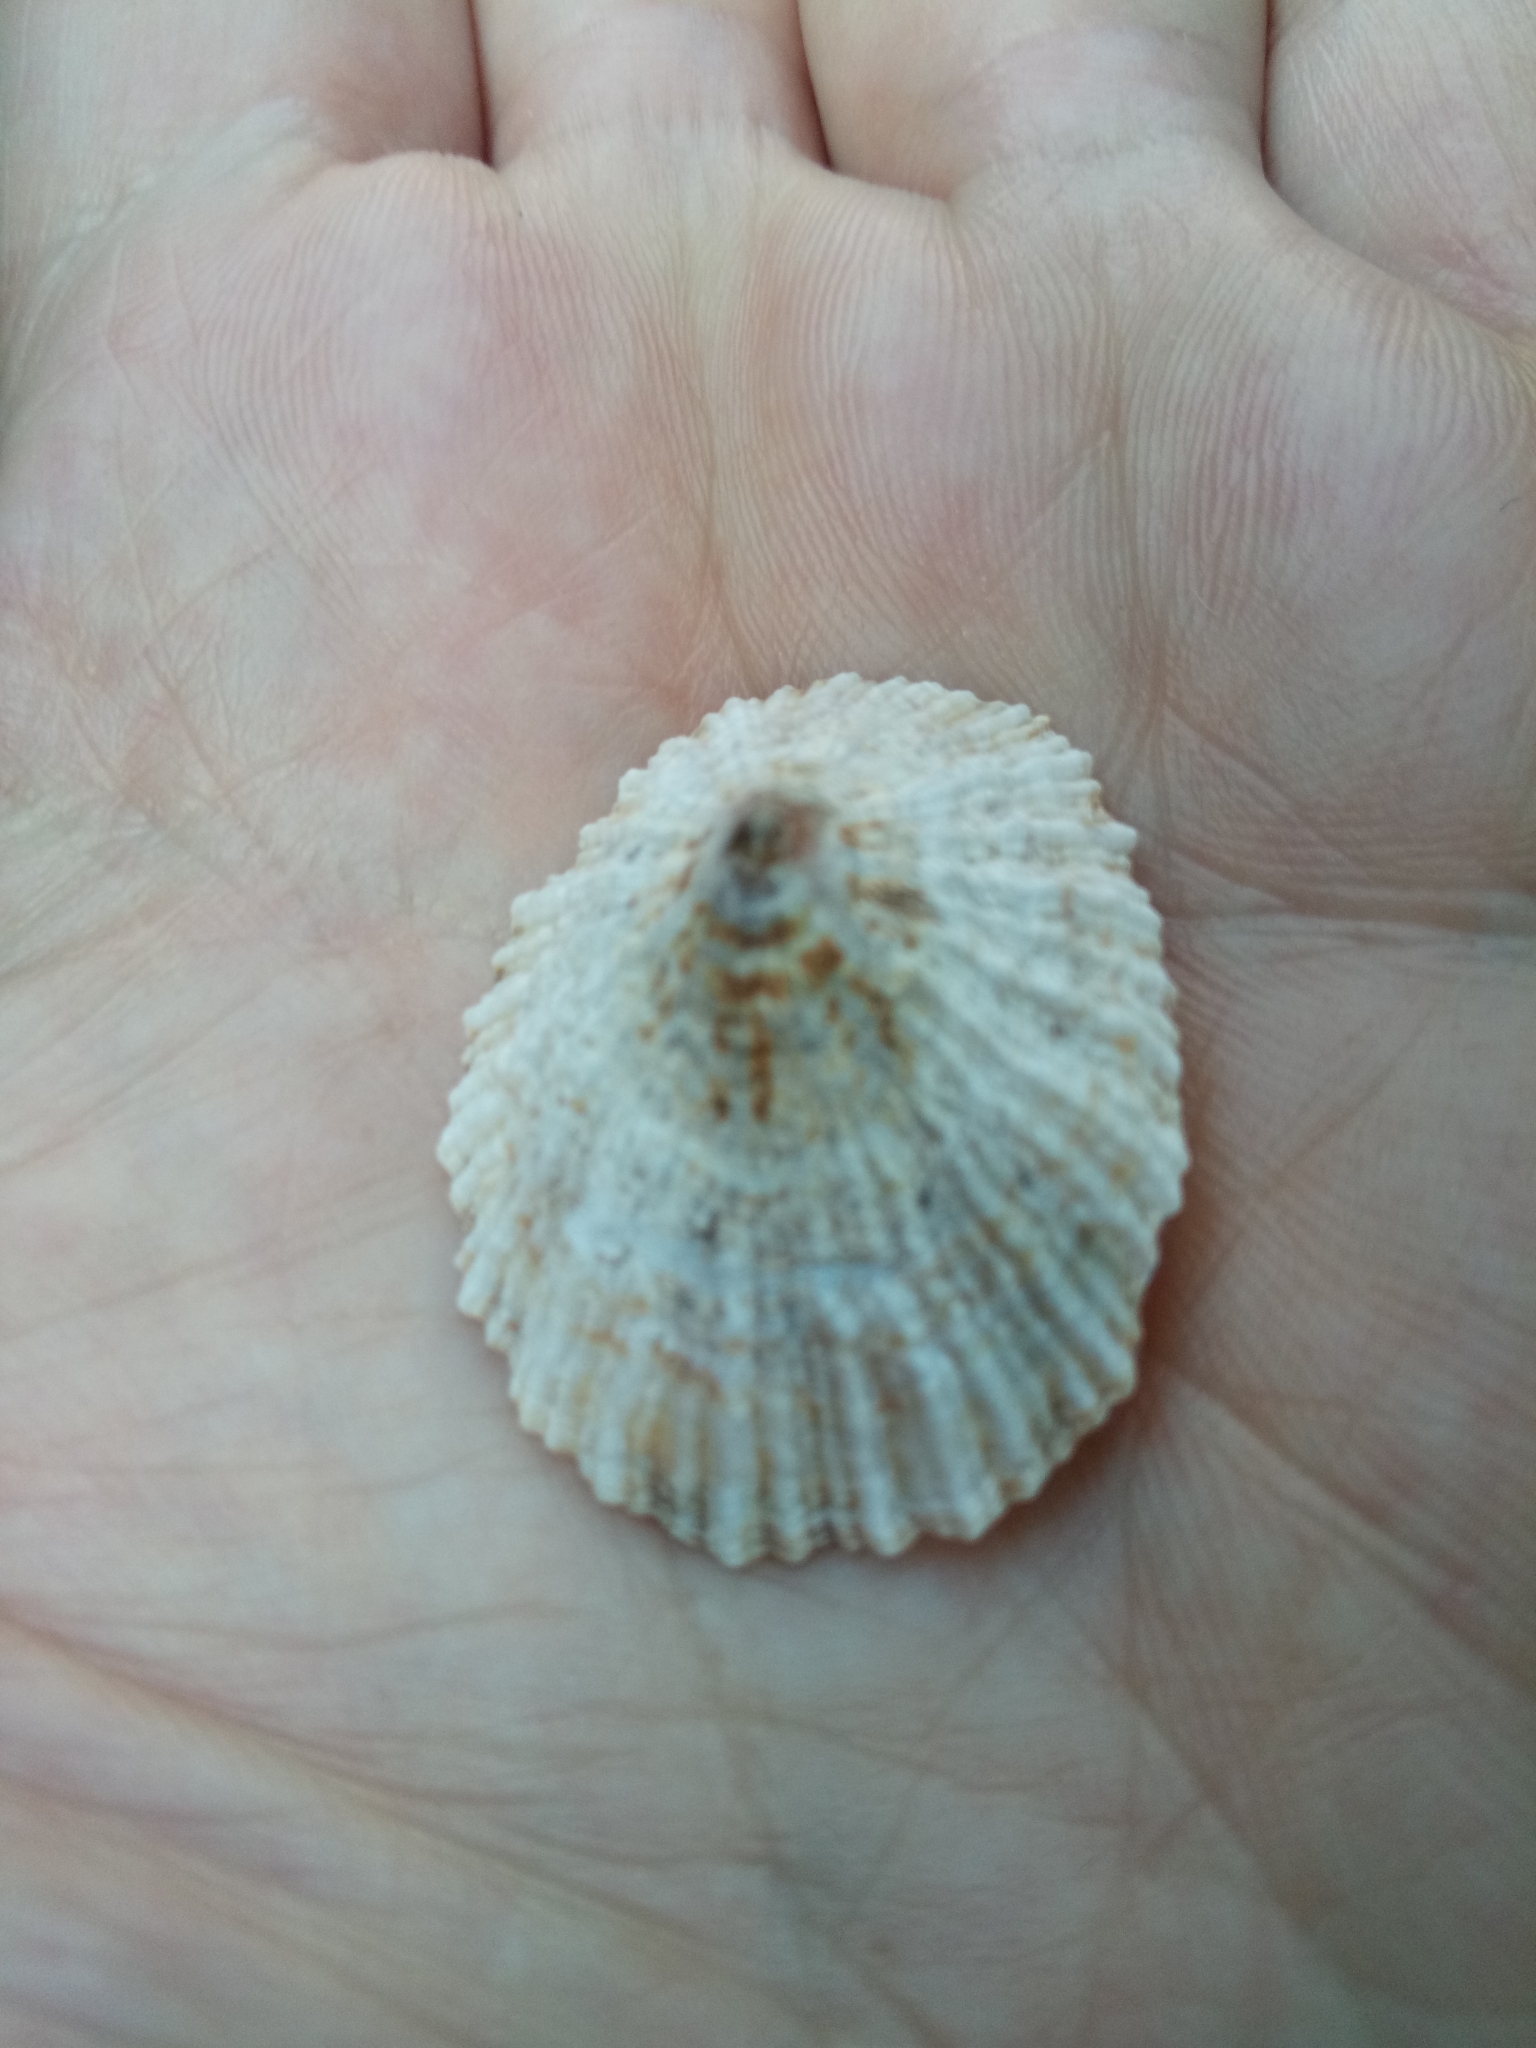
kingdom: Animalia
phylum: Mollusca
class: Gastropoda
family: Patellidae
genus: Patella
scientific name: Patella caerulea
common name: Mediterranean limpet
